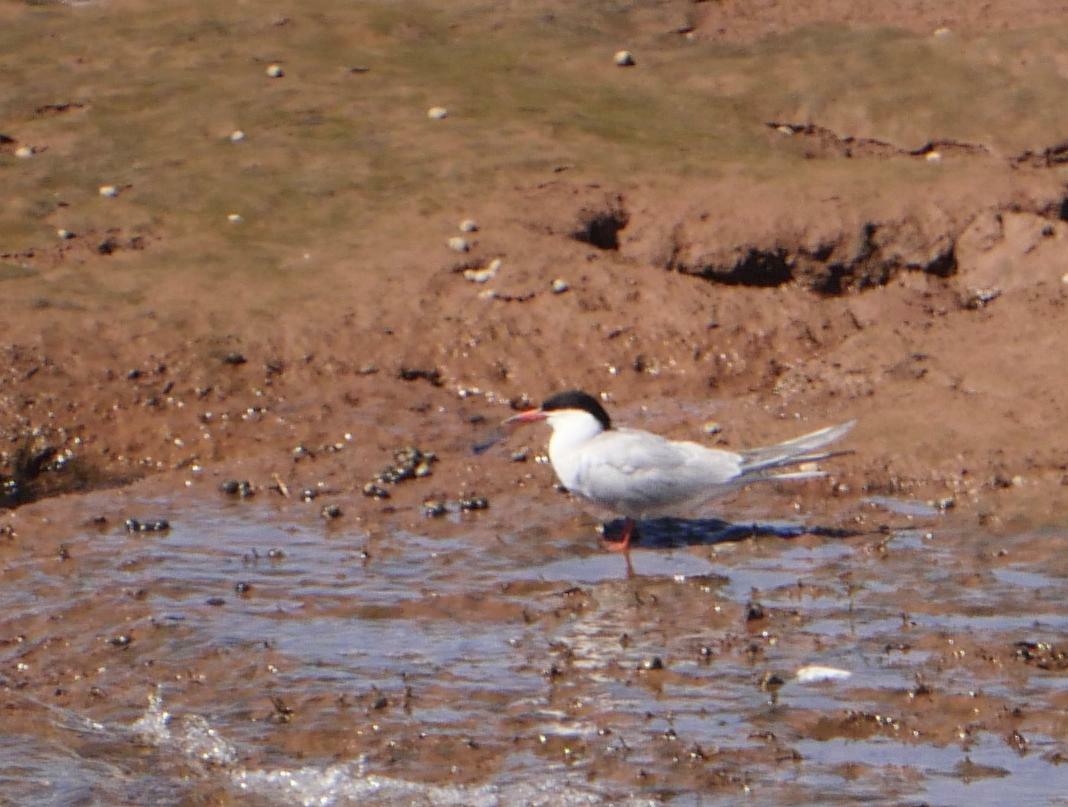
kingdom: Animalia
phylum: Chordata
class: Aves
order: Charadriiformes
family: Laridae
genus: Sterna
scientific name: Sterna hirundo
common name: Common tern
